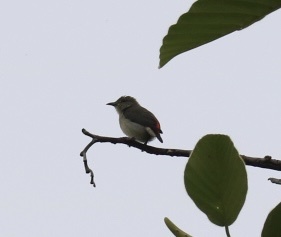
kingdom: Animalia
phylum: Chordata
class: Aves
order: Passeriformes
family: Dicaeidae
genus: Dicaeum
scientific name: Dicaeum cruentatum
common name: Scarlet-backed flowerpecker
